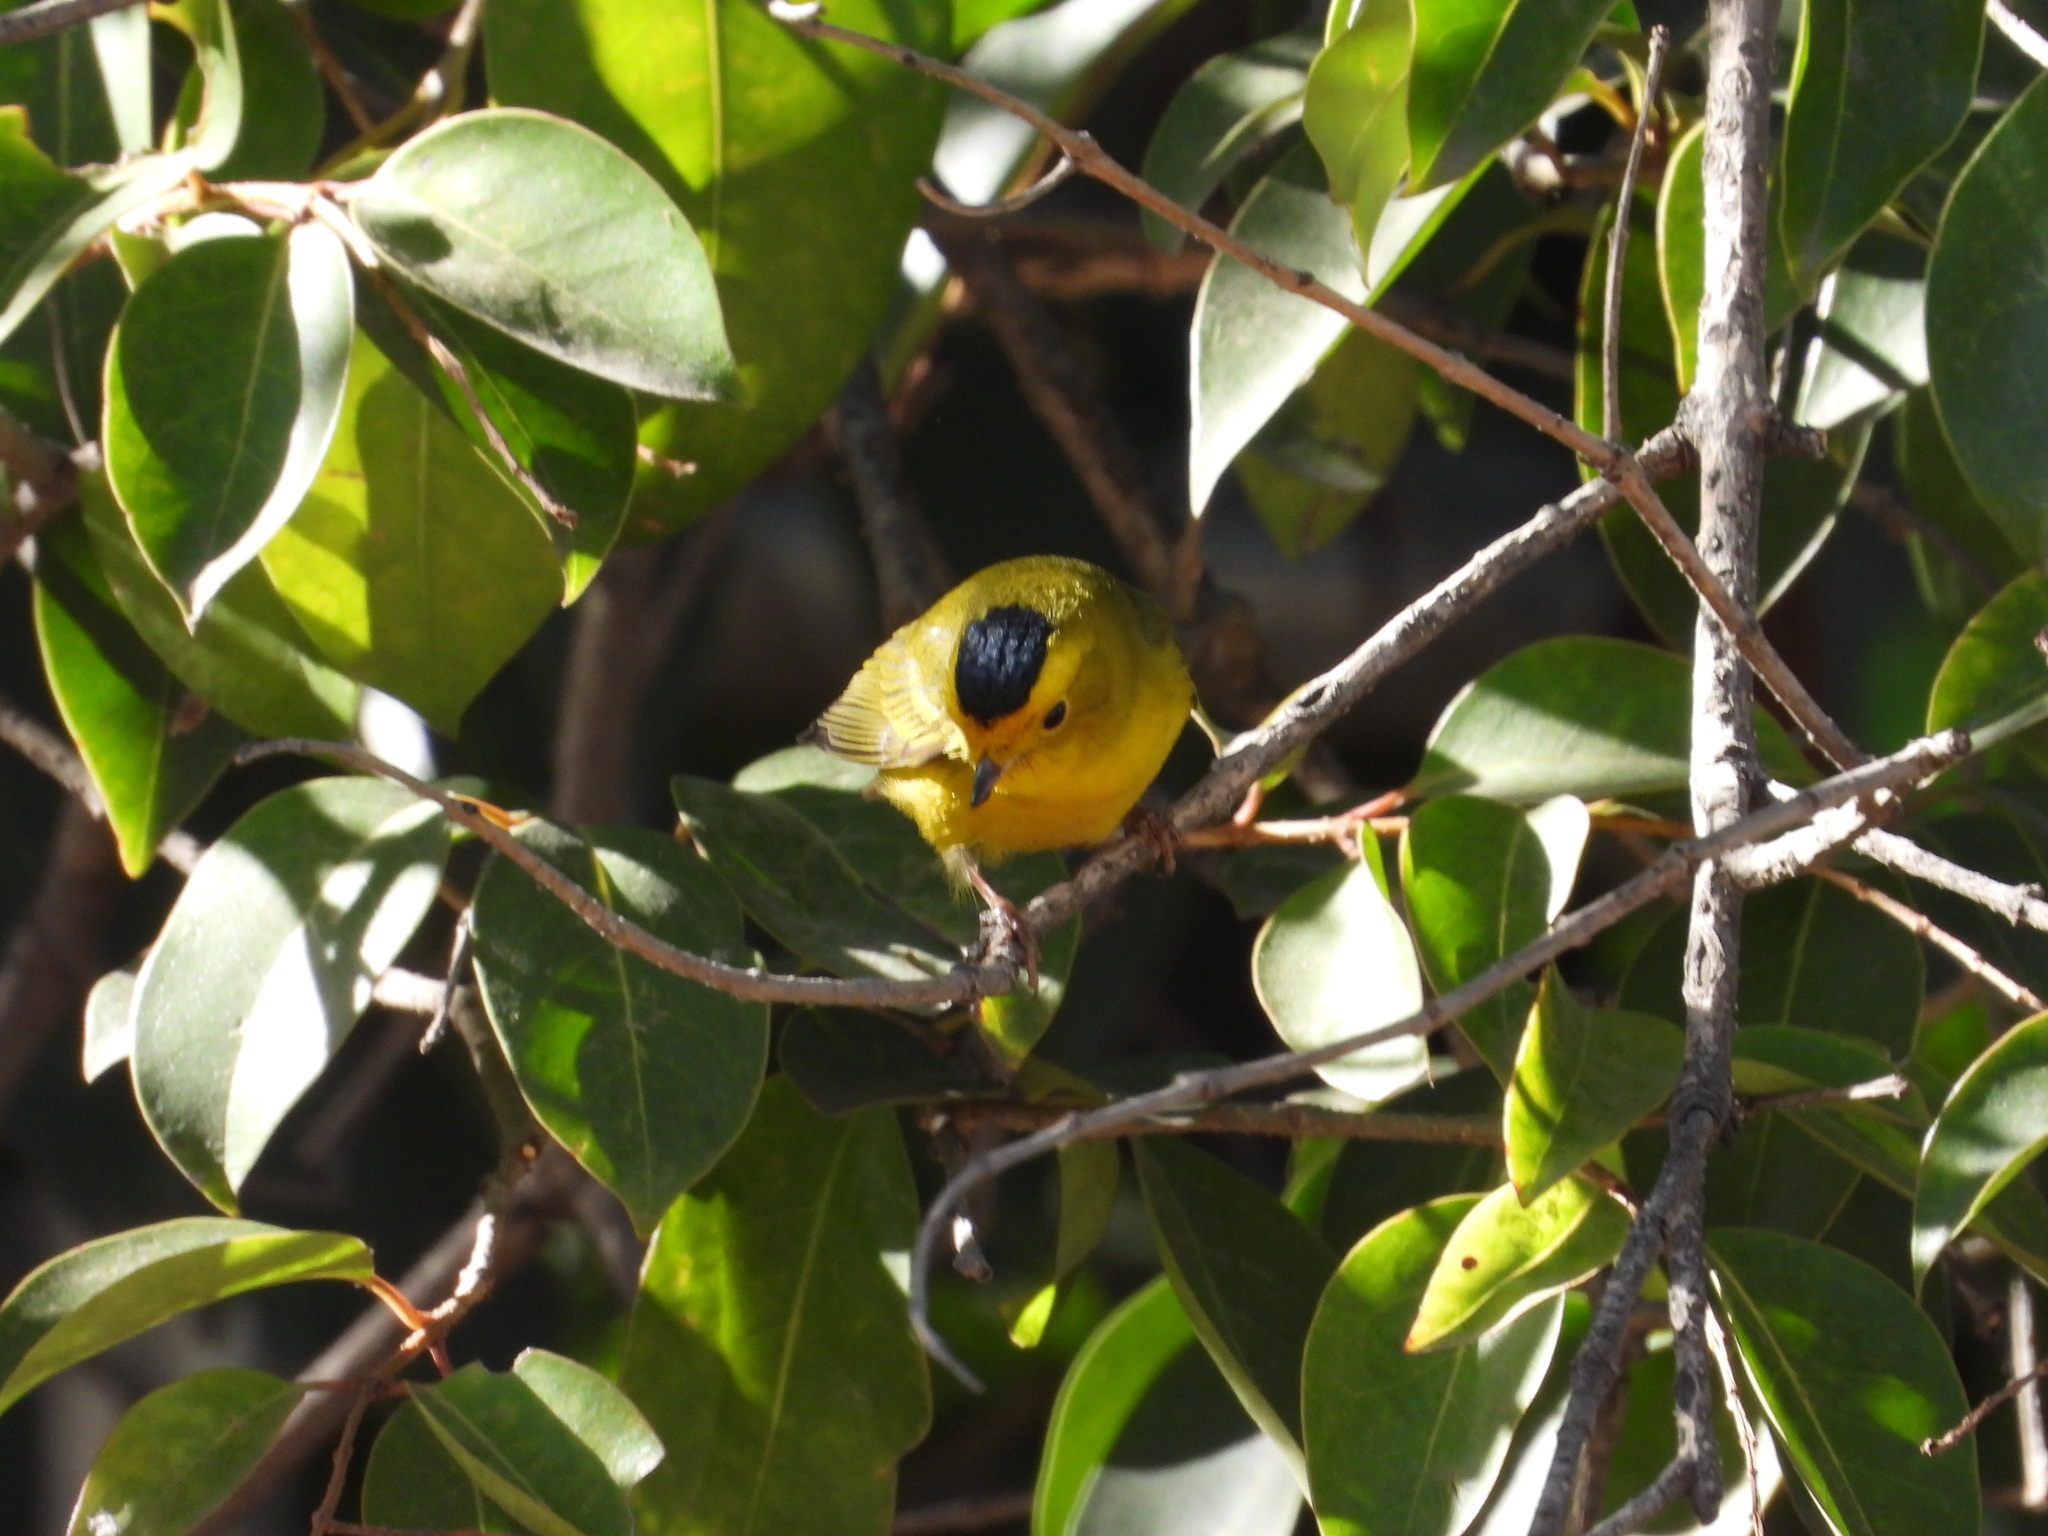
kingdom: Animalia
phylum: Chordata
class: Aves
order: Passeriformes
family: Parulidae
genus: Cardellina
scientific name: Cardellina pusilla
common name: Wilson's warbler
